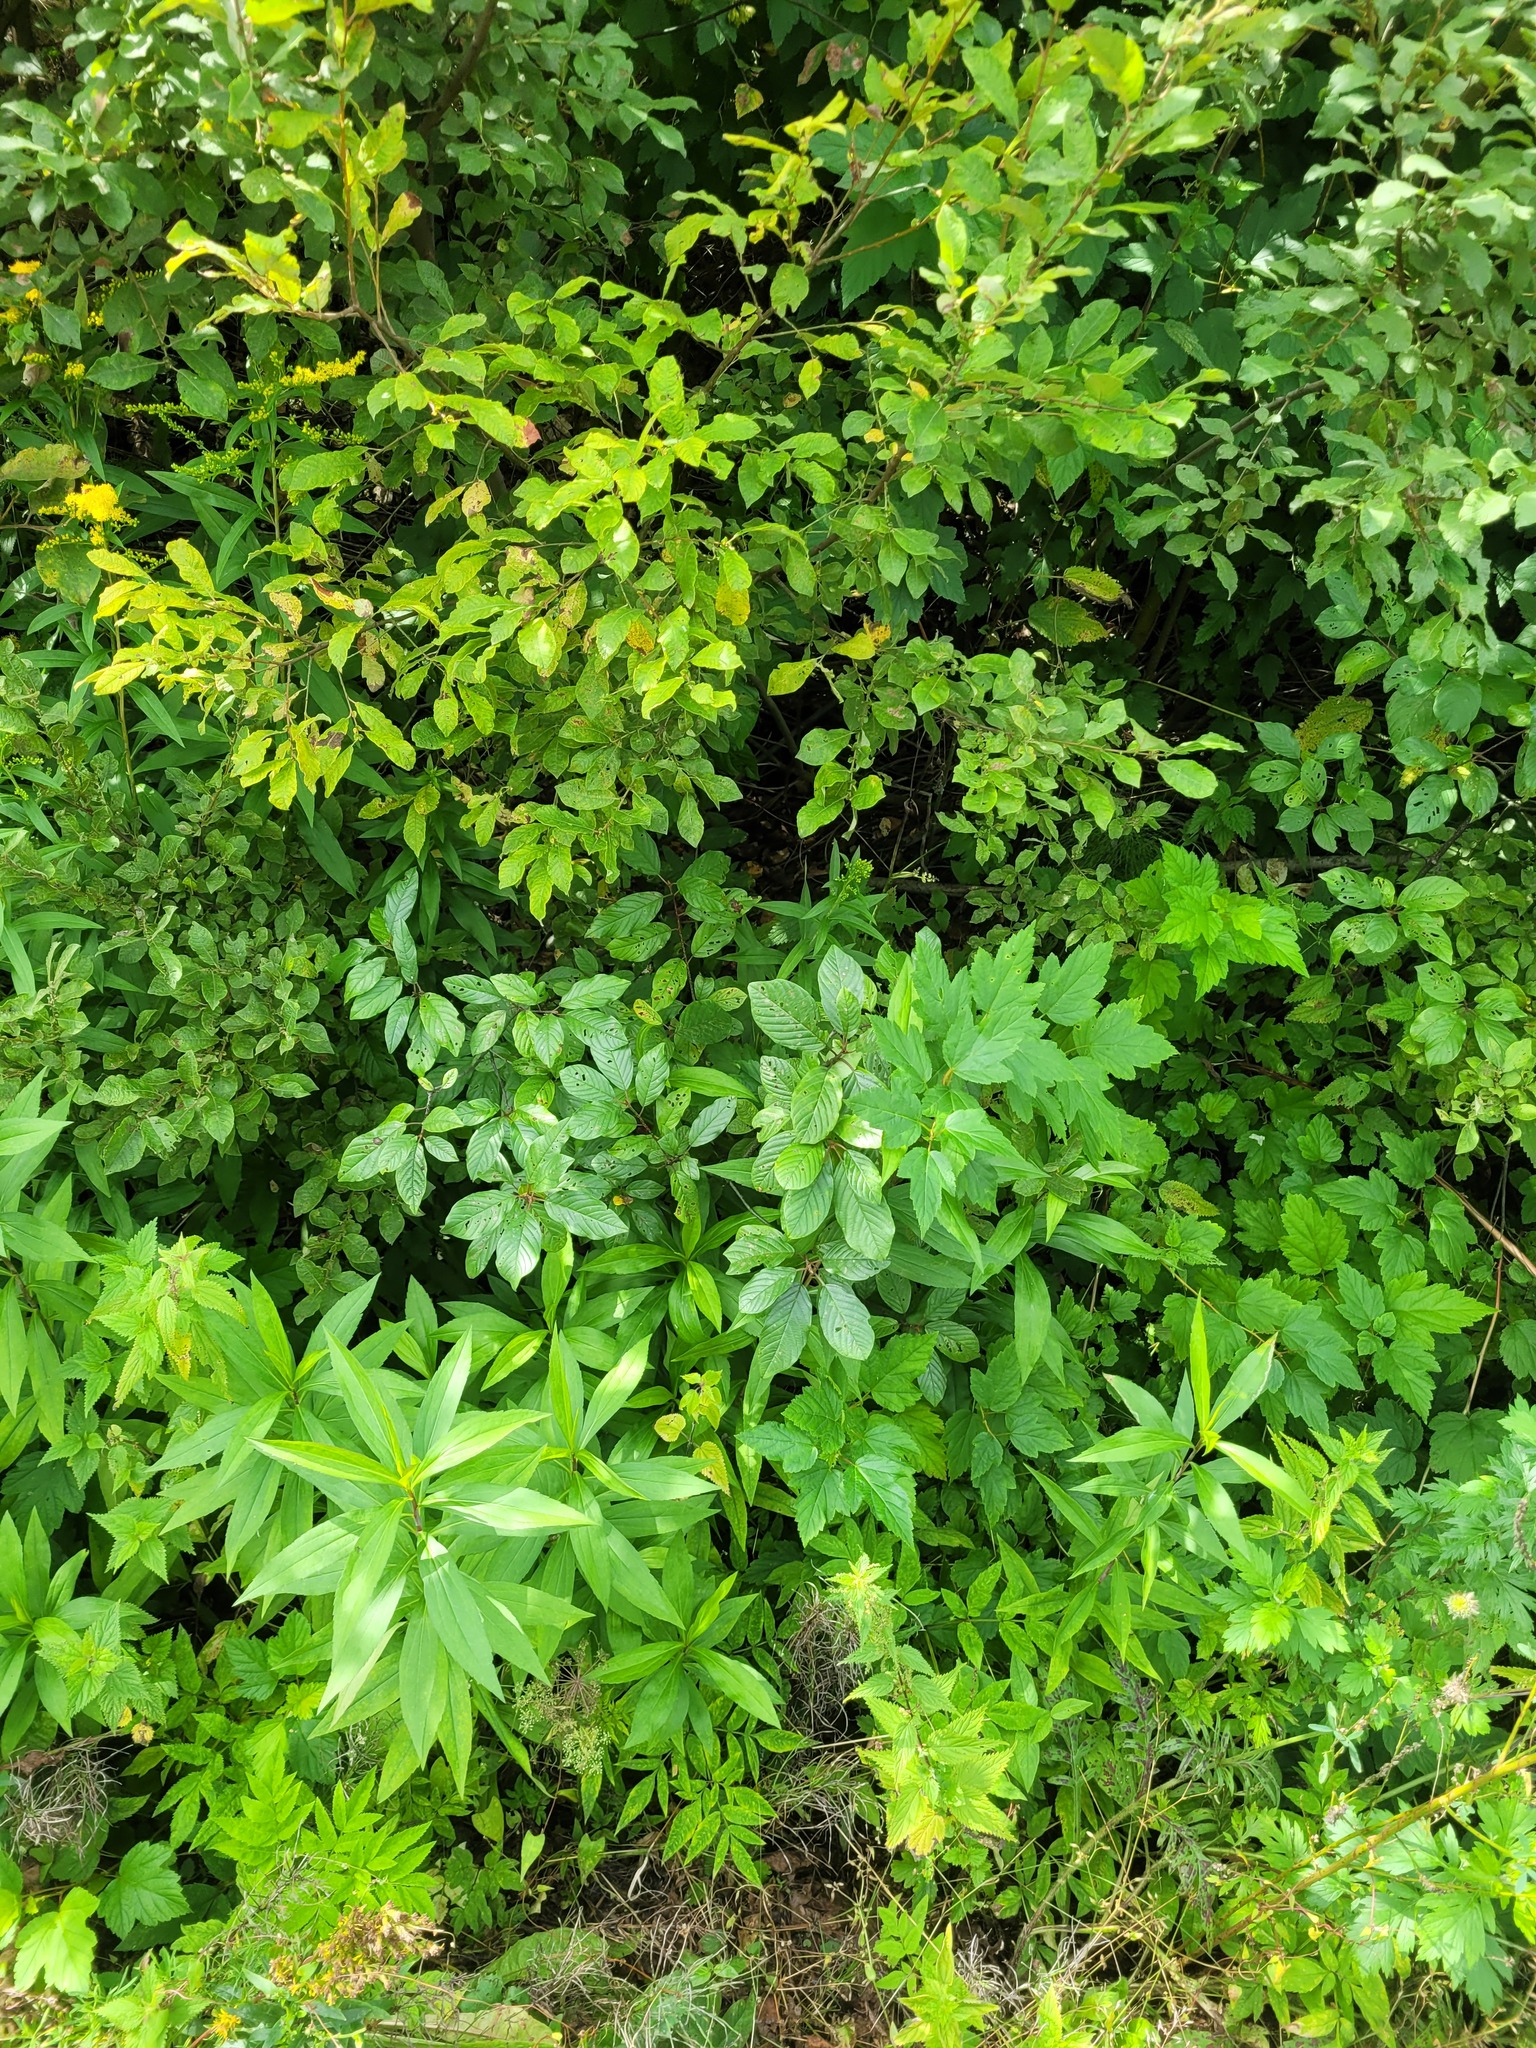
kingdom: Plantae
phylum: Tracheophyta
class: Magnoliopsida
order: Rosales
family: Rhamnaceae
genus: Frangula
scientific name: Frangula alnus
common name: Alder buckthorn
